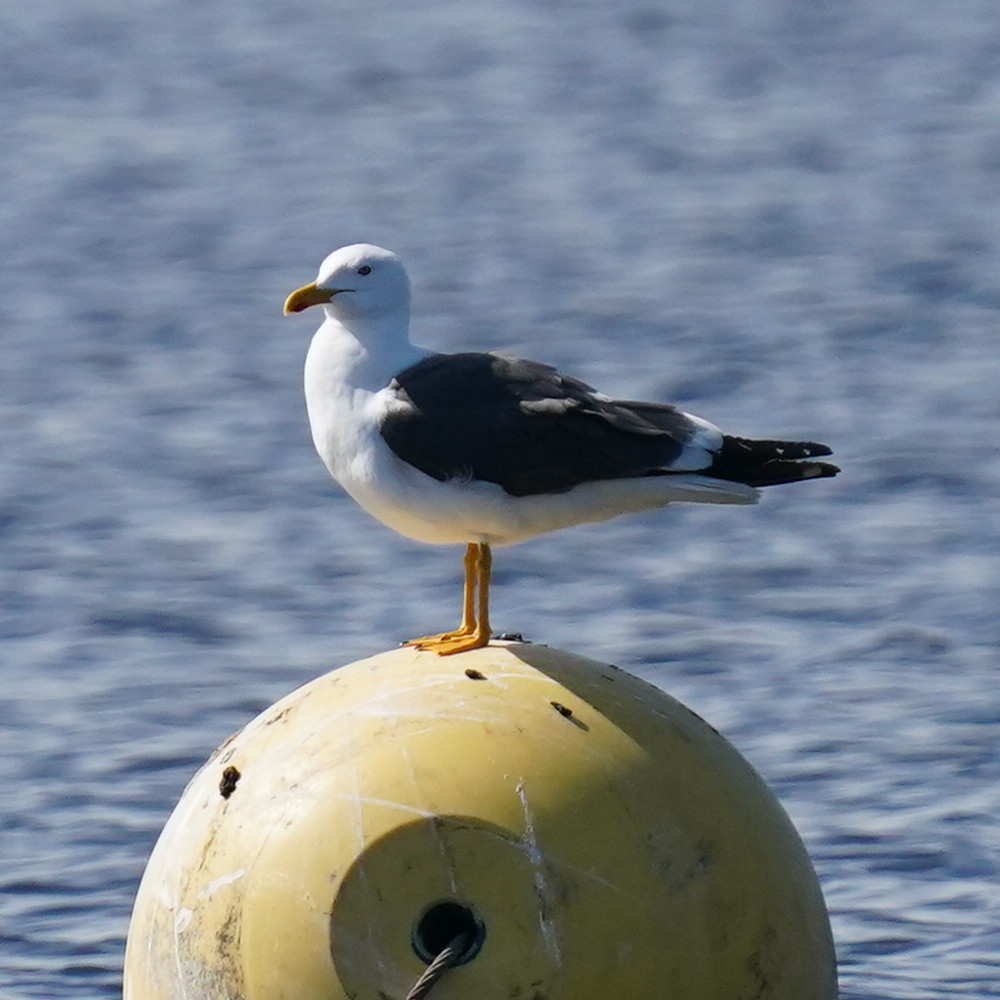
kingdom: Animalia
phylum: Chordata
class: Aves
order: Charadriiformes
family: Laridae
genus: Larus
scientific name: Larus fuscus
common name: Lesser black-backed gull
